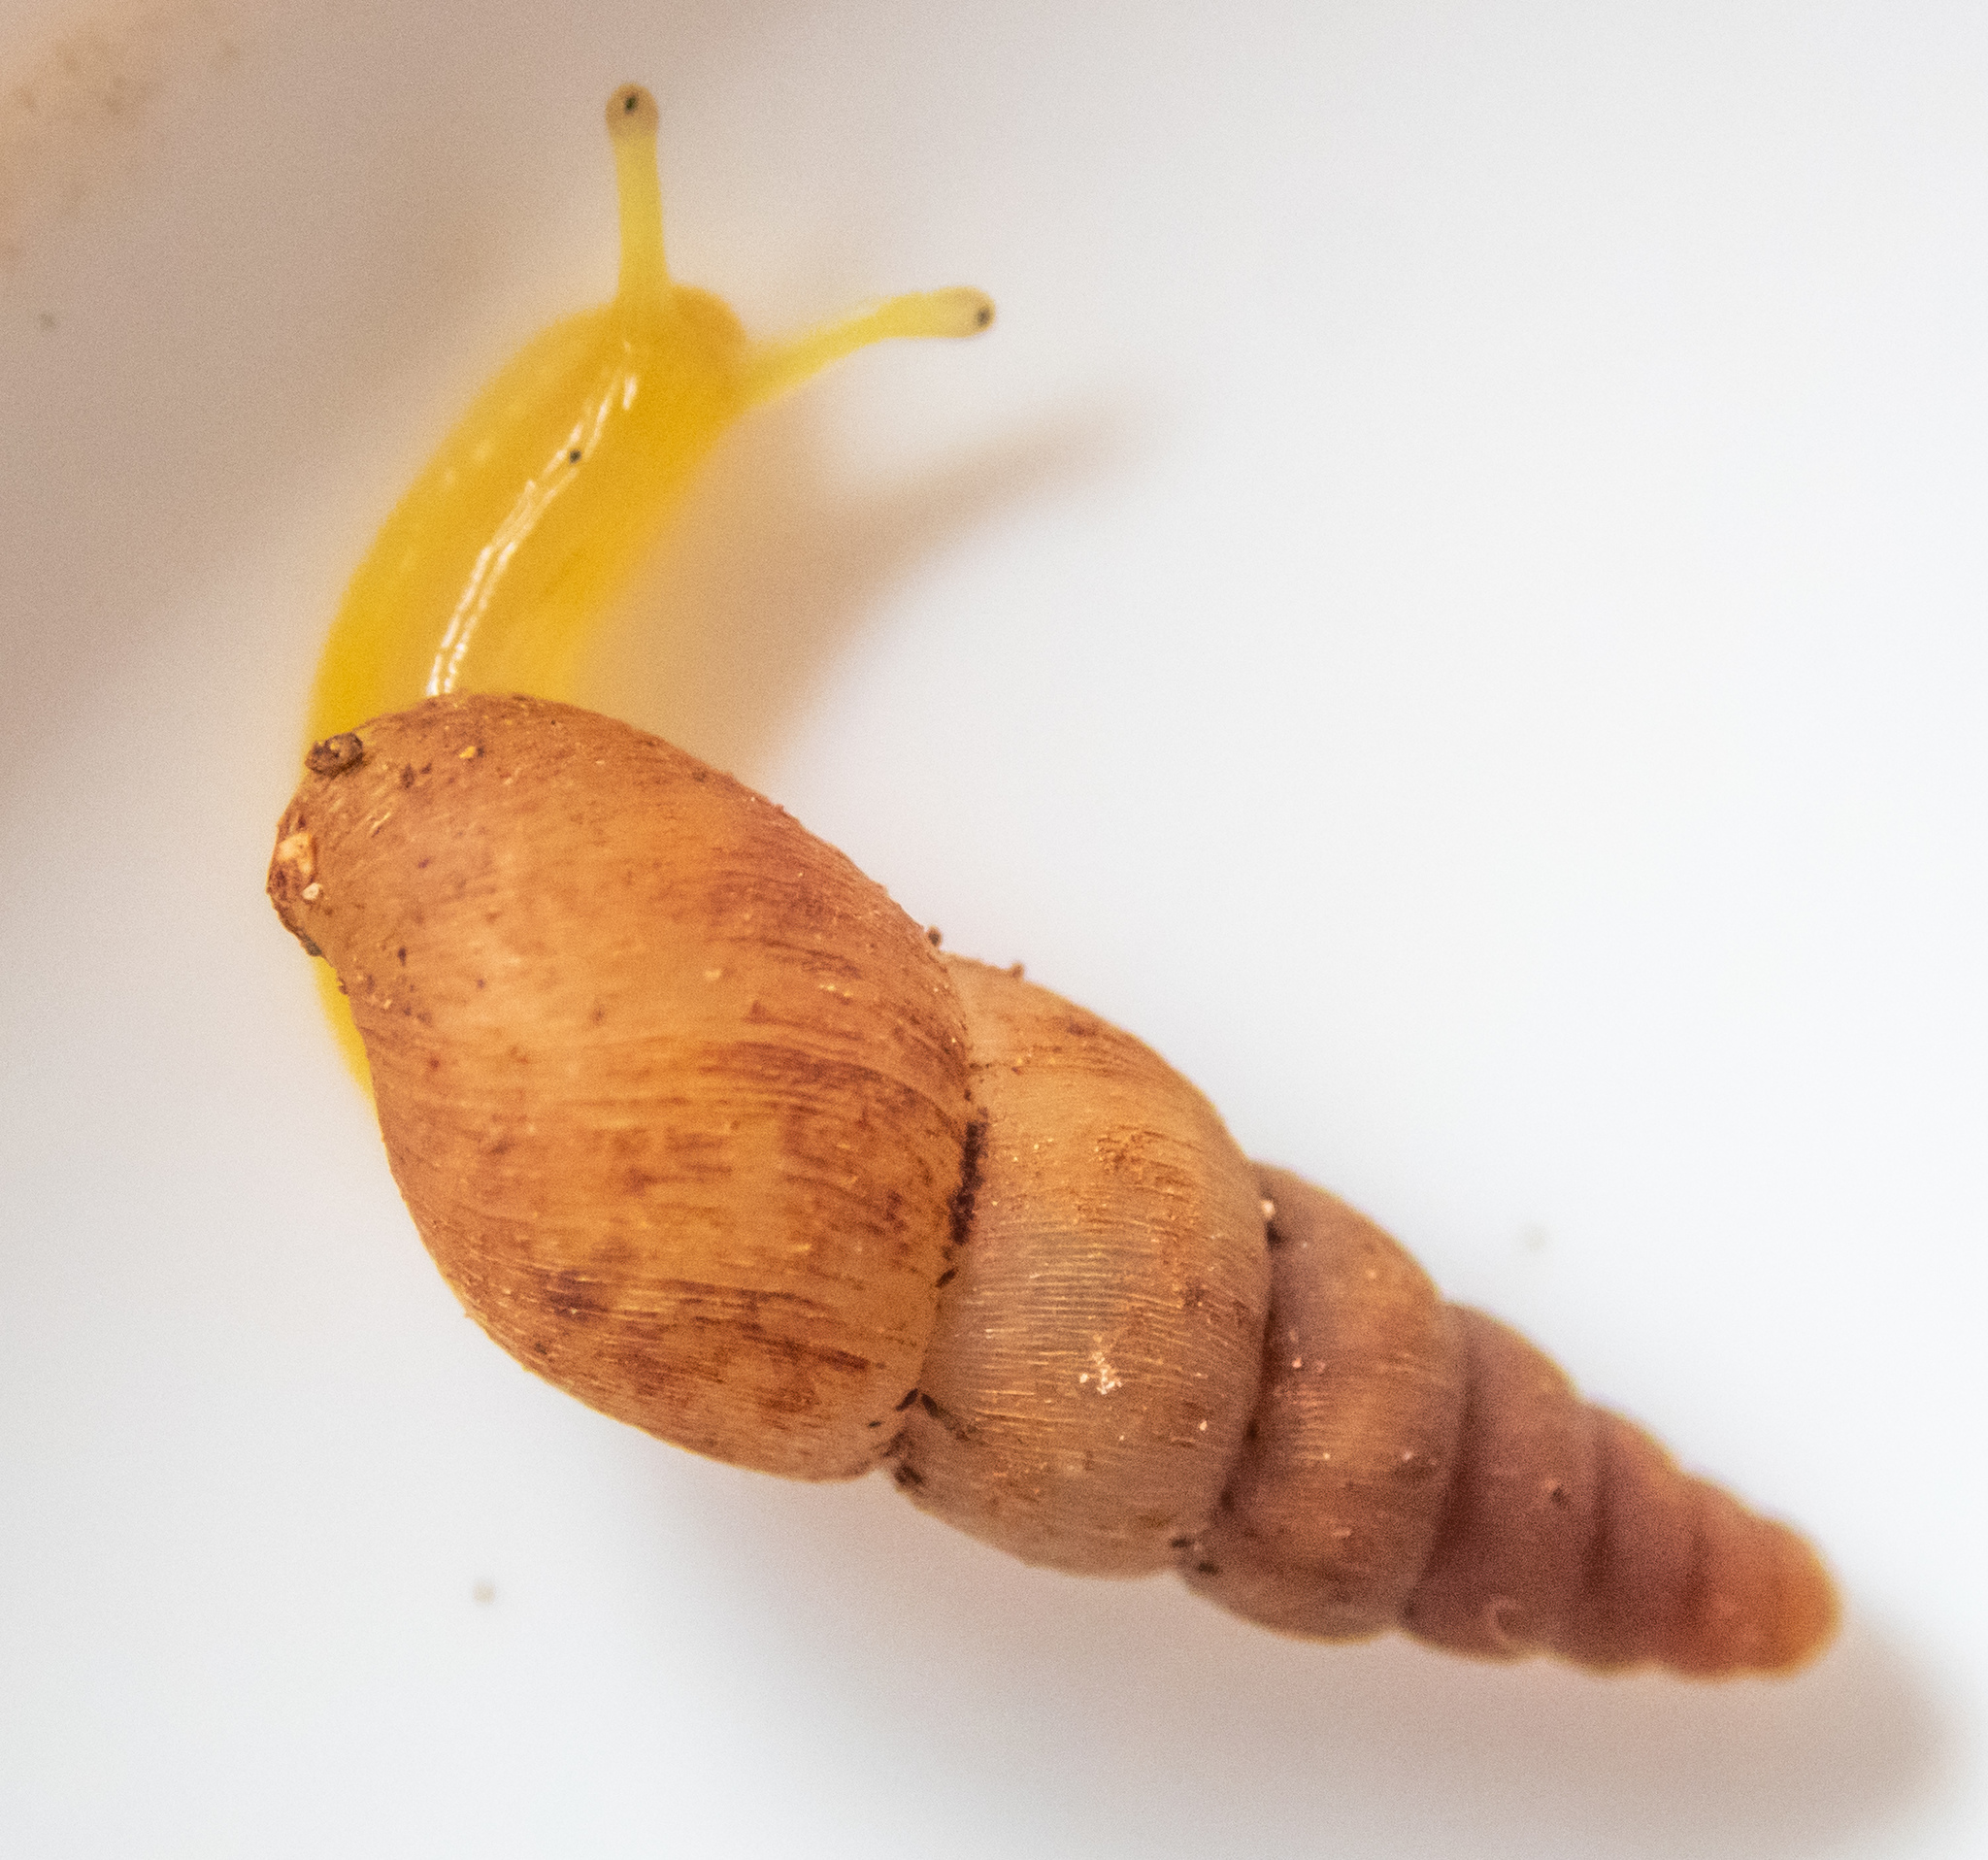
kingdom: Animalia
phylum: Mollusca
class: Gastropoda
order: Stylommatophora
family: Achatinidae
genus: Paropeas
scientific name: Paropeas achatinaceum
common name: Snail
